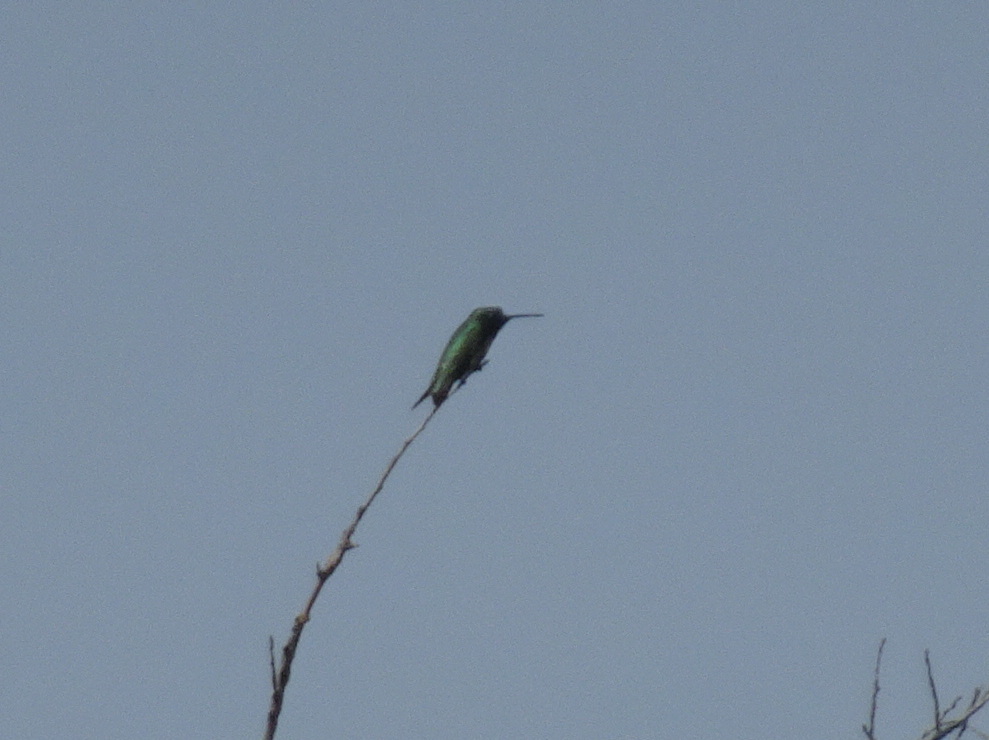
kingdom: Animalia
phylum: Chordata
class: Aves
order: Apodiformes
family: Trochilidae
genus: Archilochus
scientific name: Archilochus colubris
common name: Ruby-throated hummingbird
